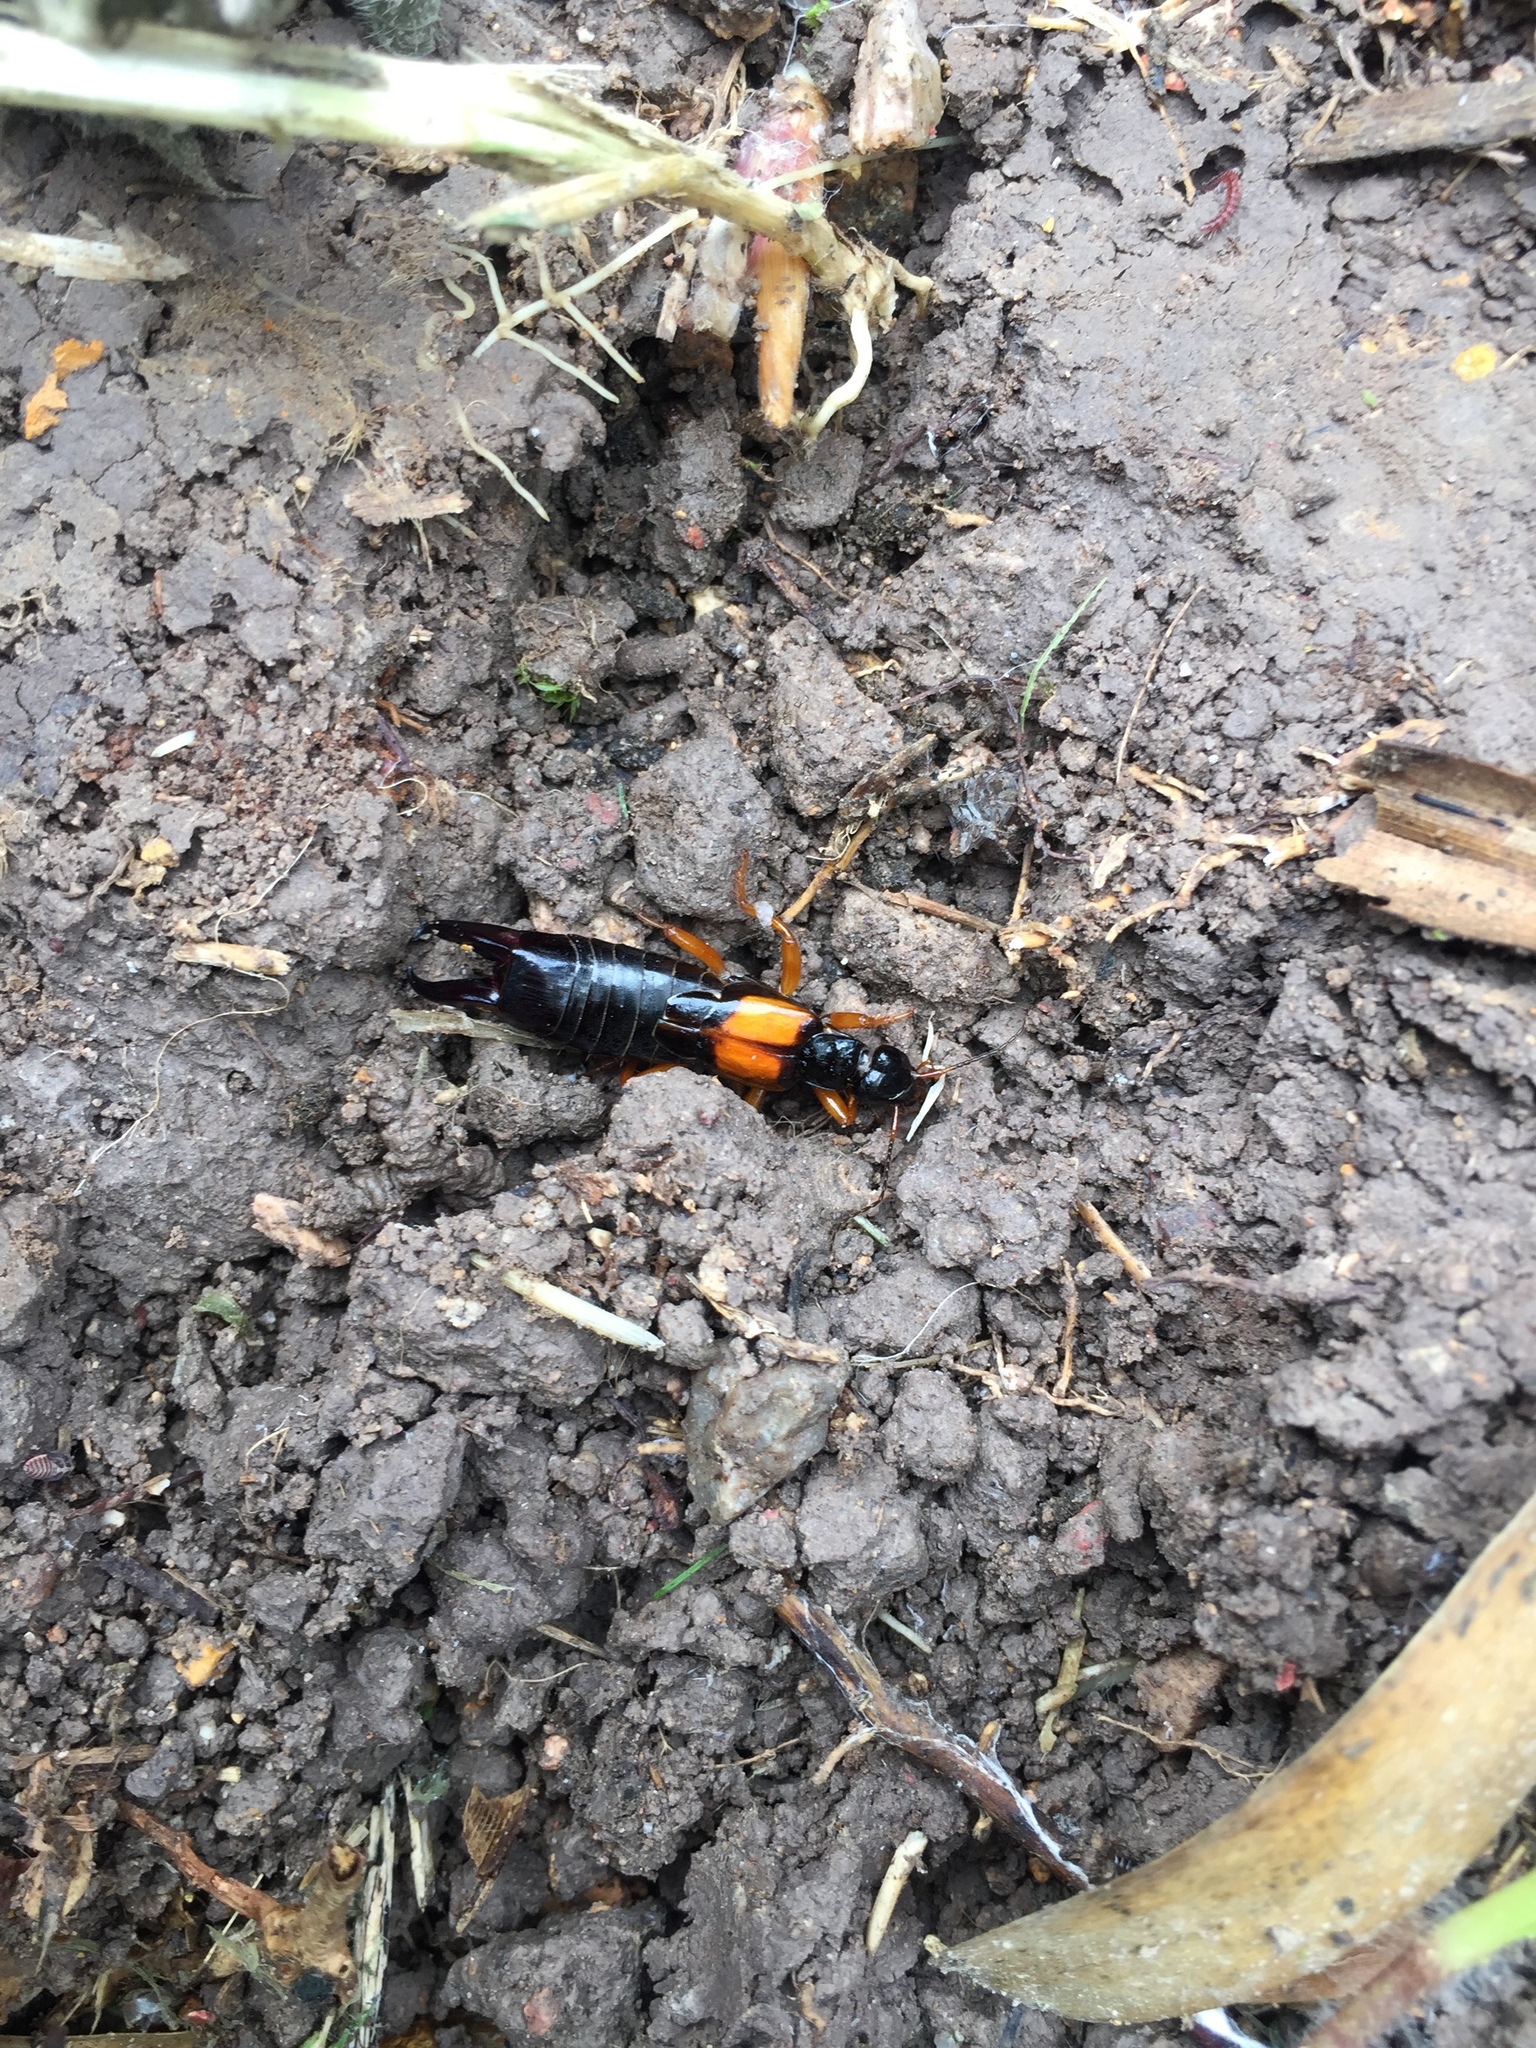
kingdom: Animalia
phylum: Arthropoda
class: Insecta
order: Dermaptera
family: Anisolabididae
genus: Carcinophora
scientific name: Carcinophora americana
